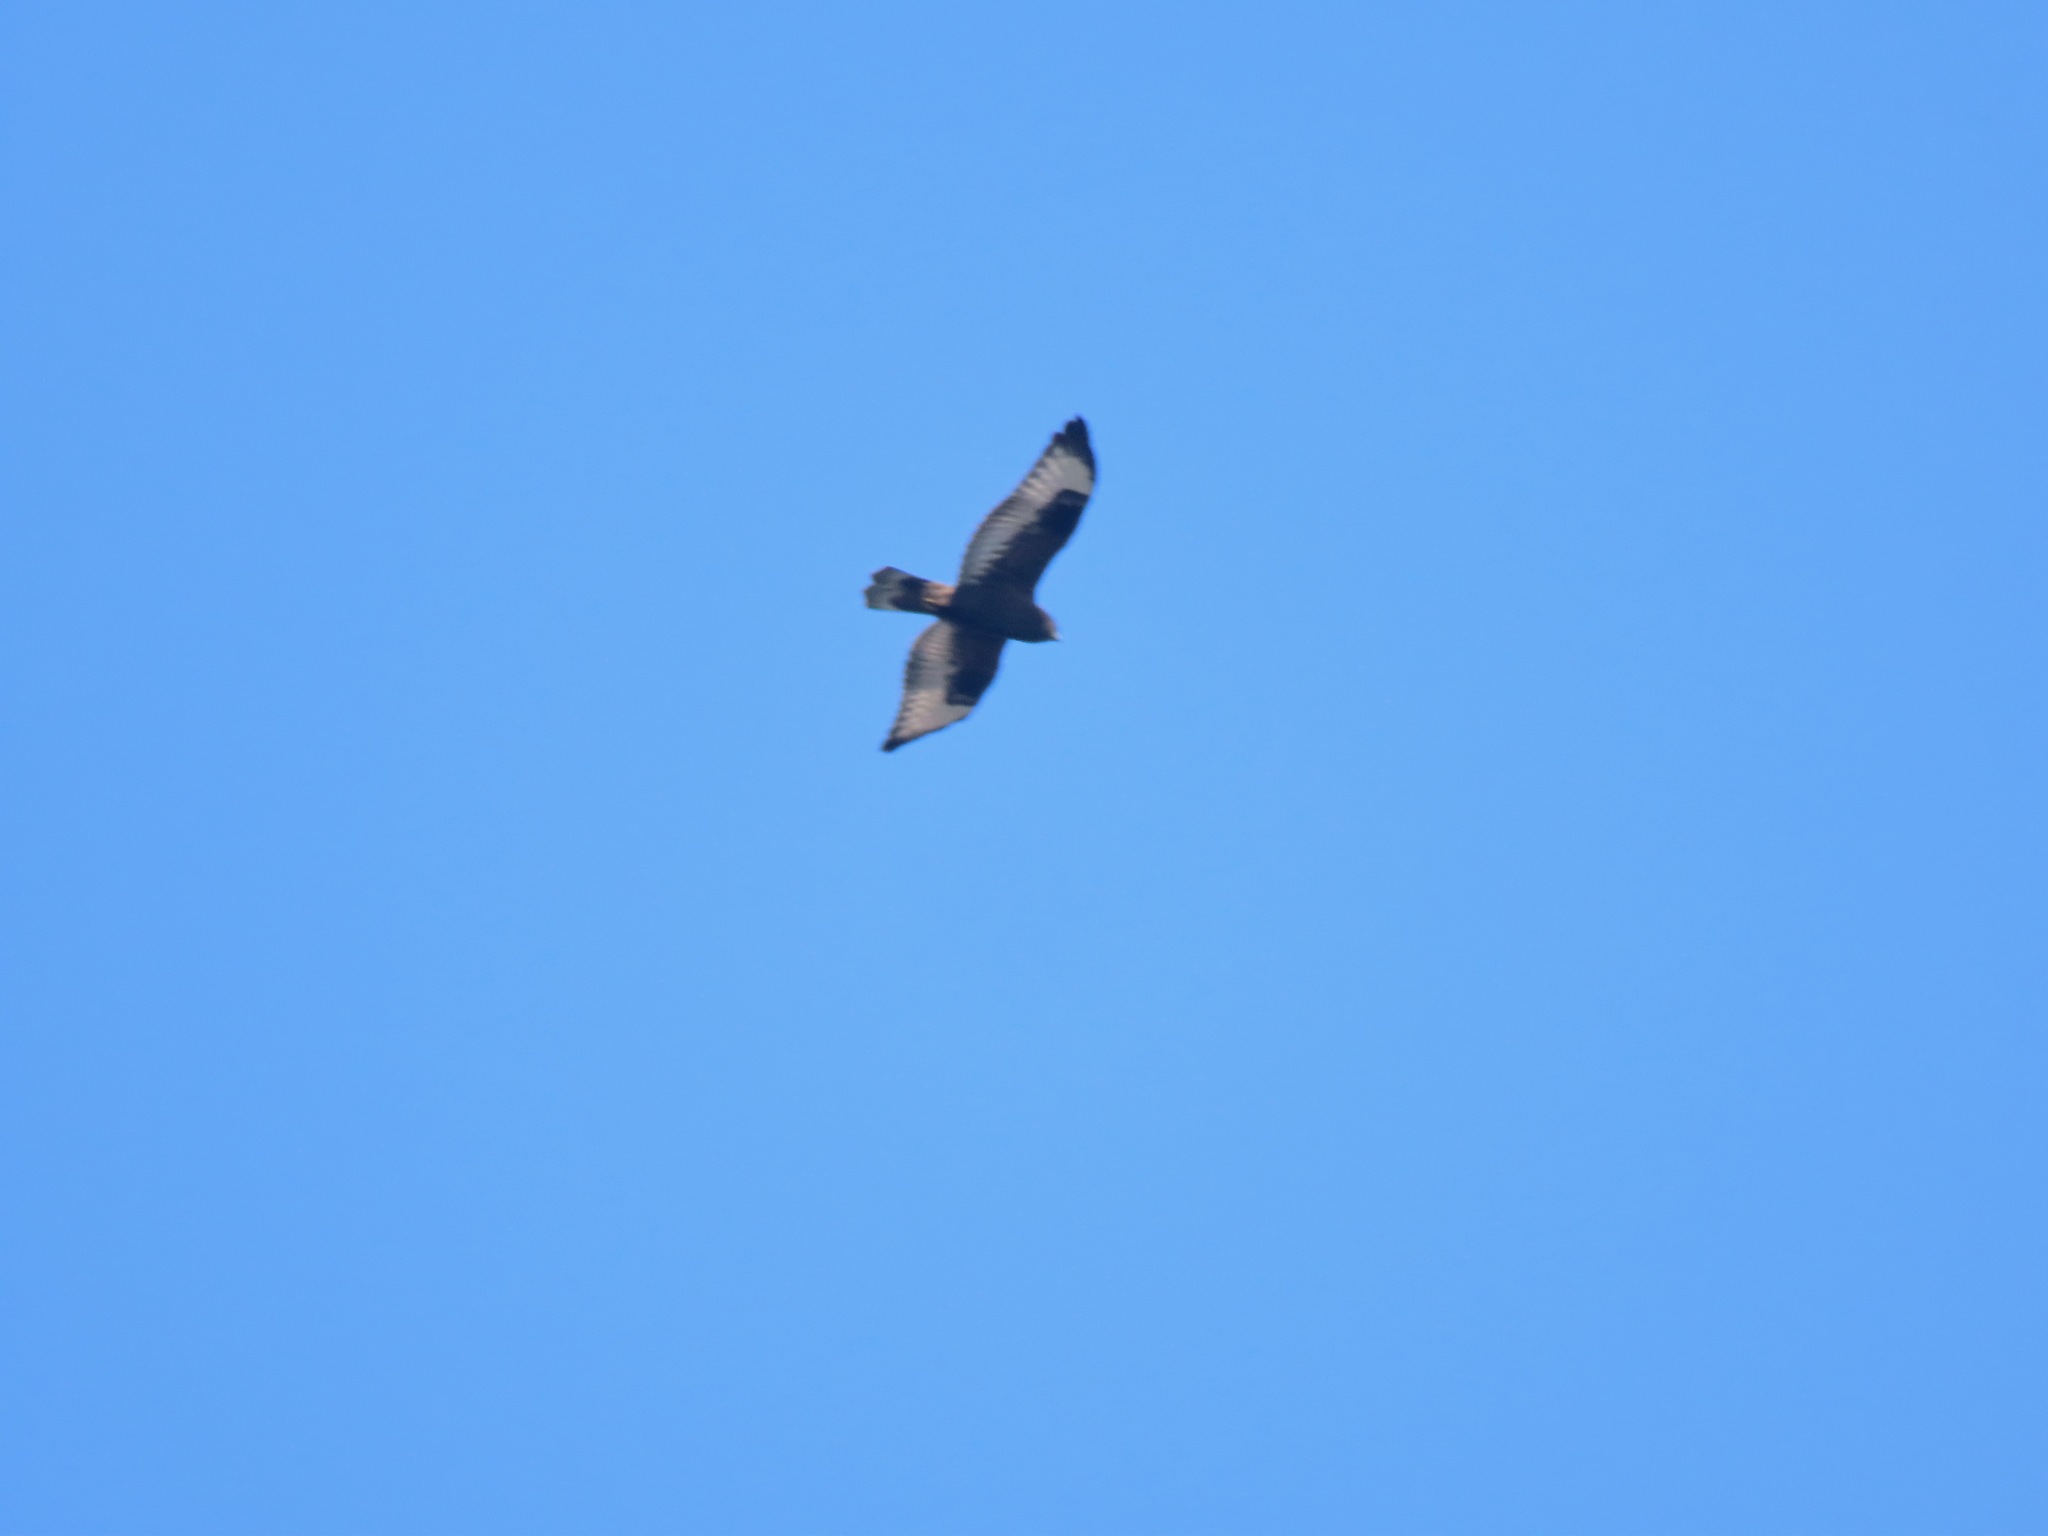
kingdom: Animalia
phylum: Chordata
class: Aves
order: Accipitriformes
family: Accipitridae
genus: Buteo
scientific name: Buteo lagopus
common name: Rough-legged buzzard
